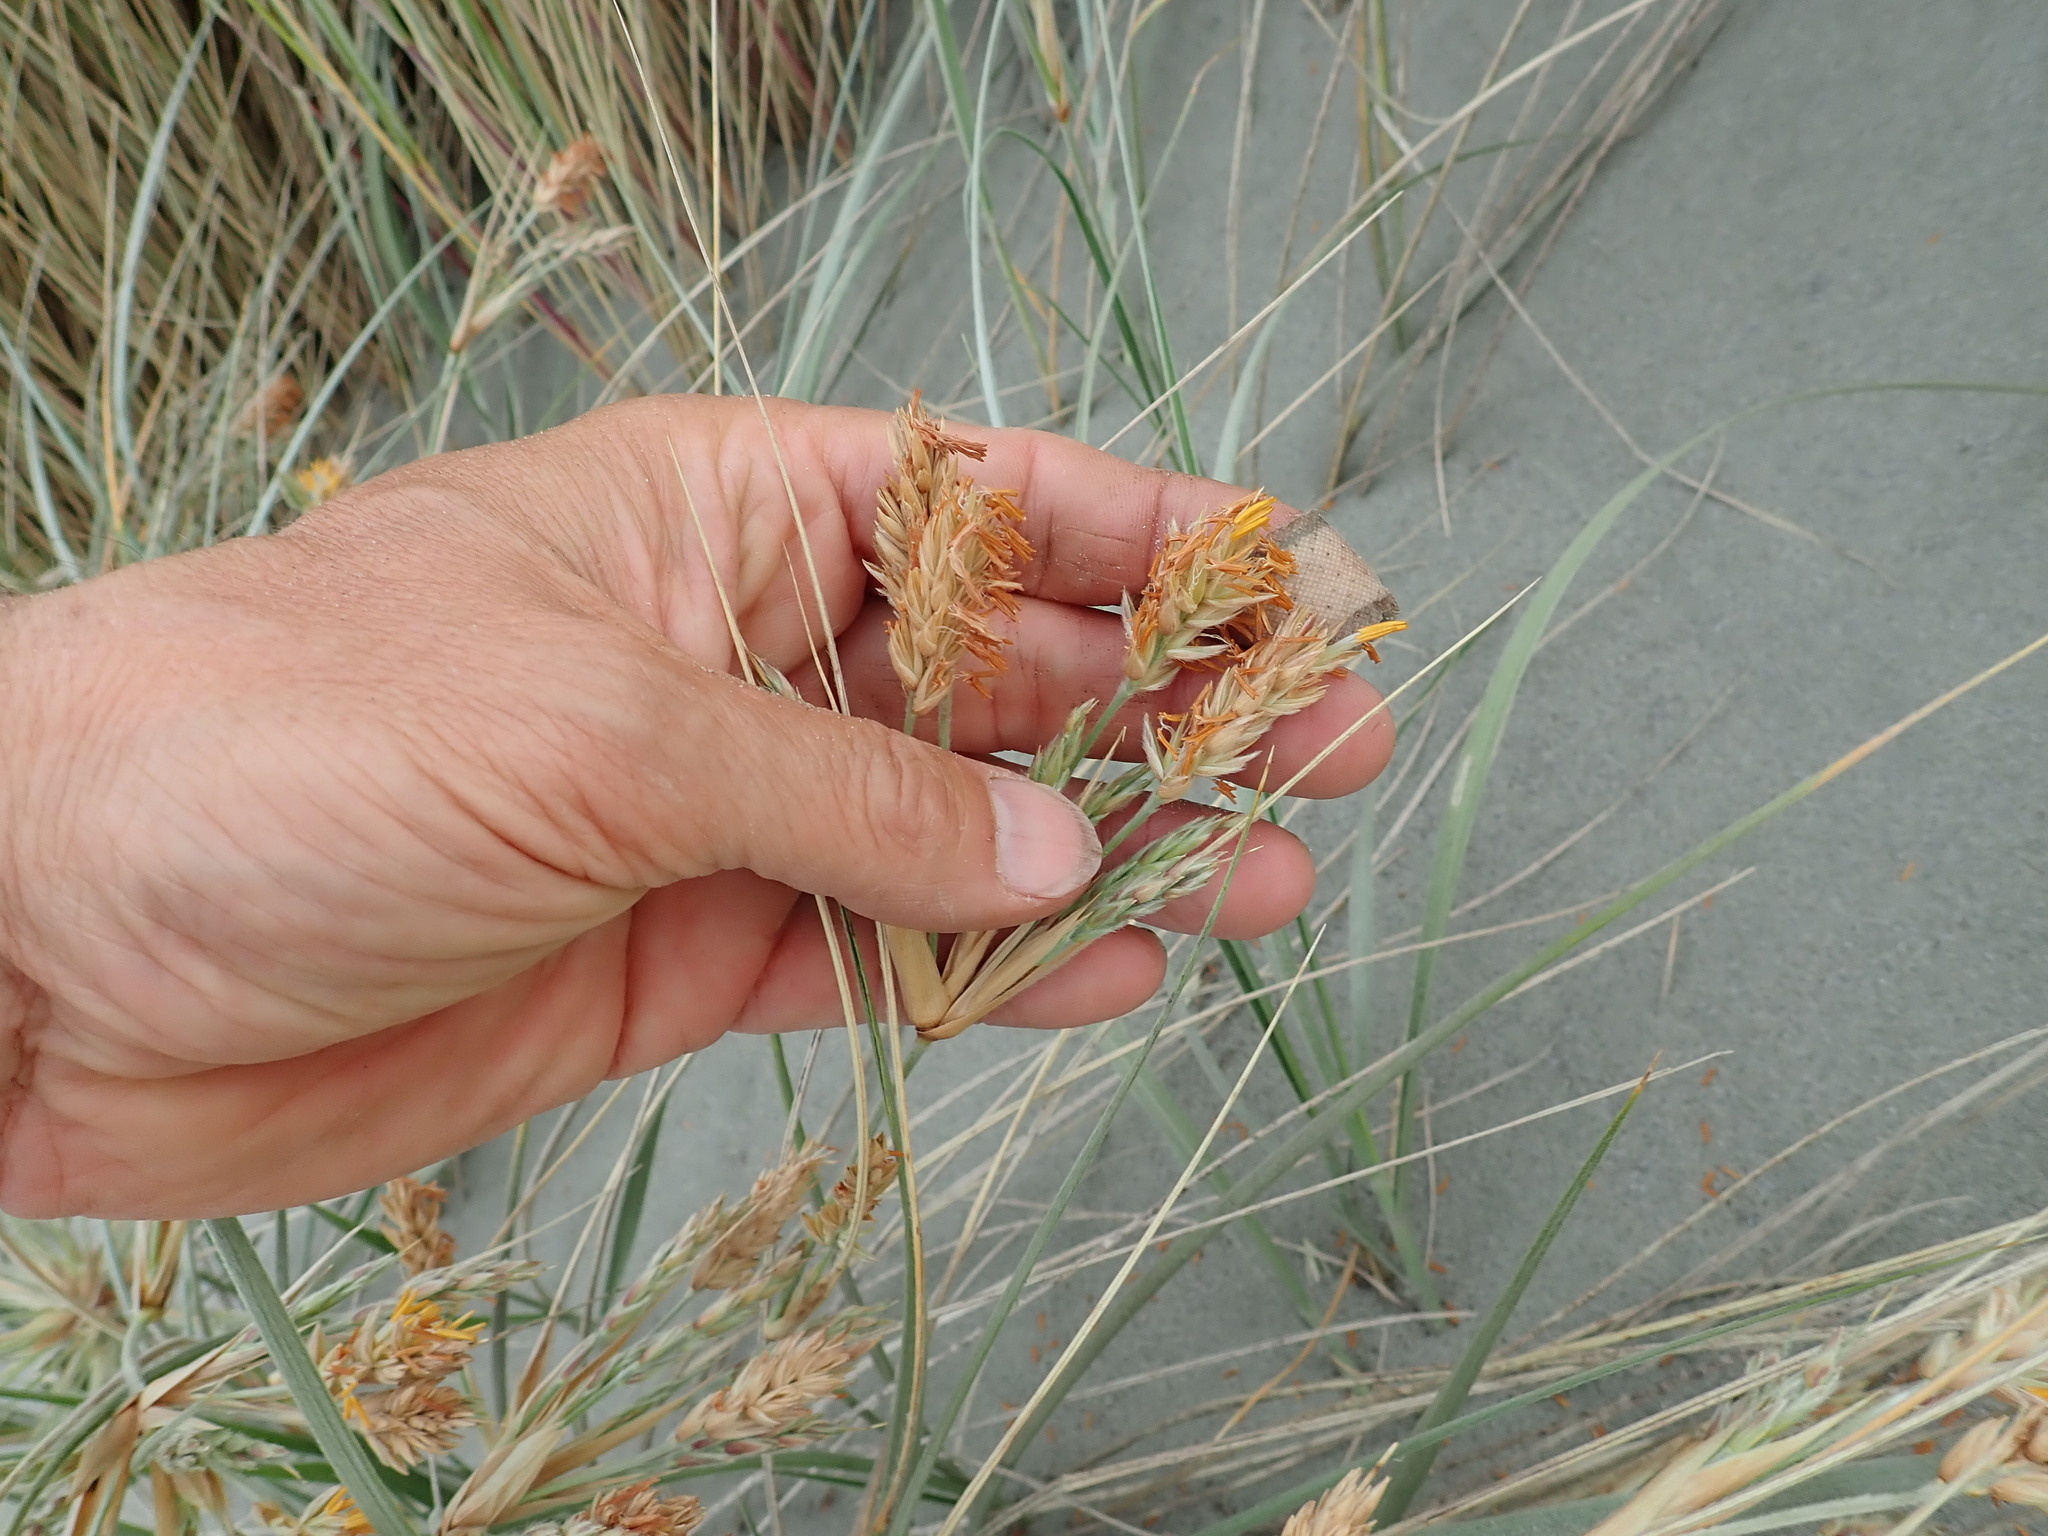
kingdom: Plantae
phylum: Tracheophyta
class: Liliopsida
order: Poales
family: Poaceae
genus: Spinifex
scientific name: Spinifex sericeus
